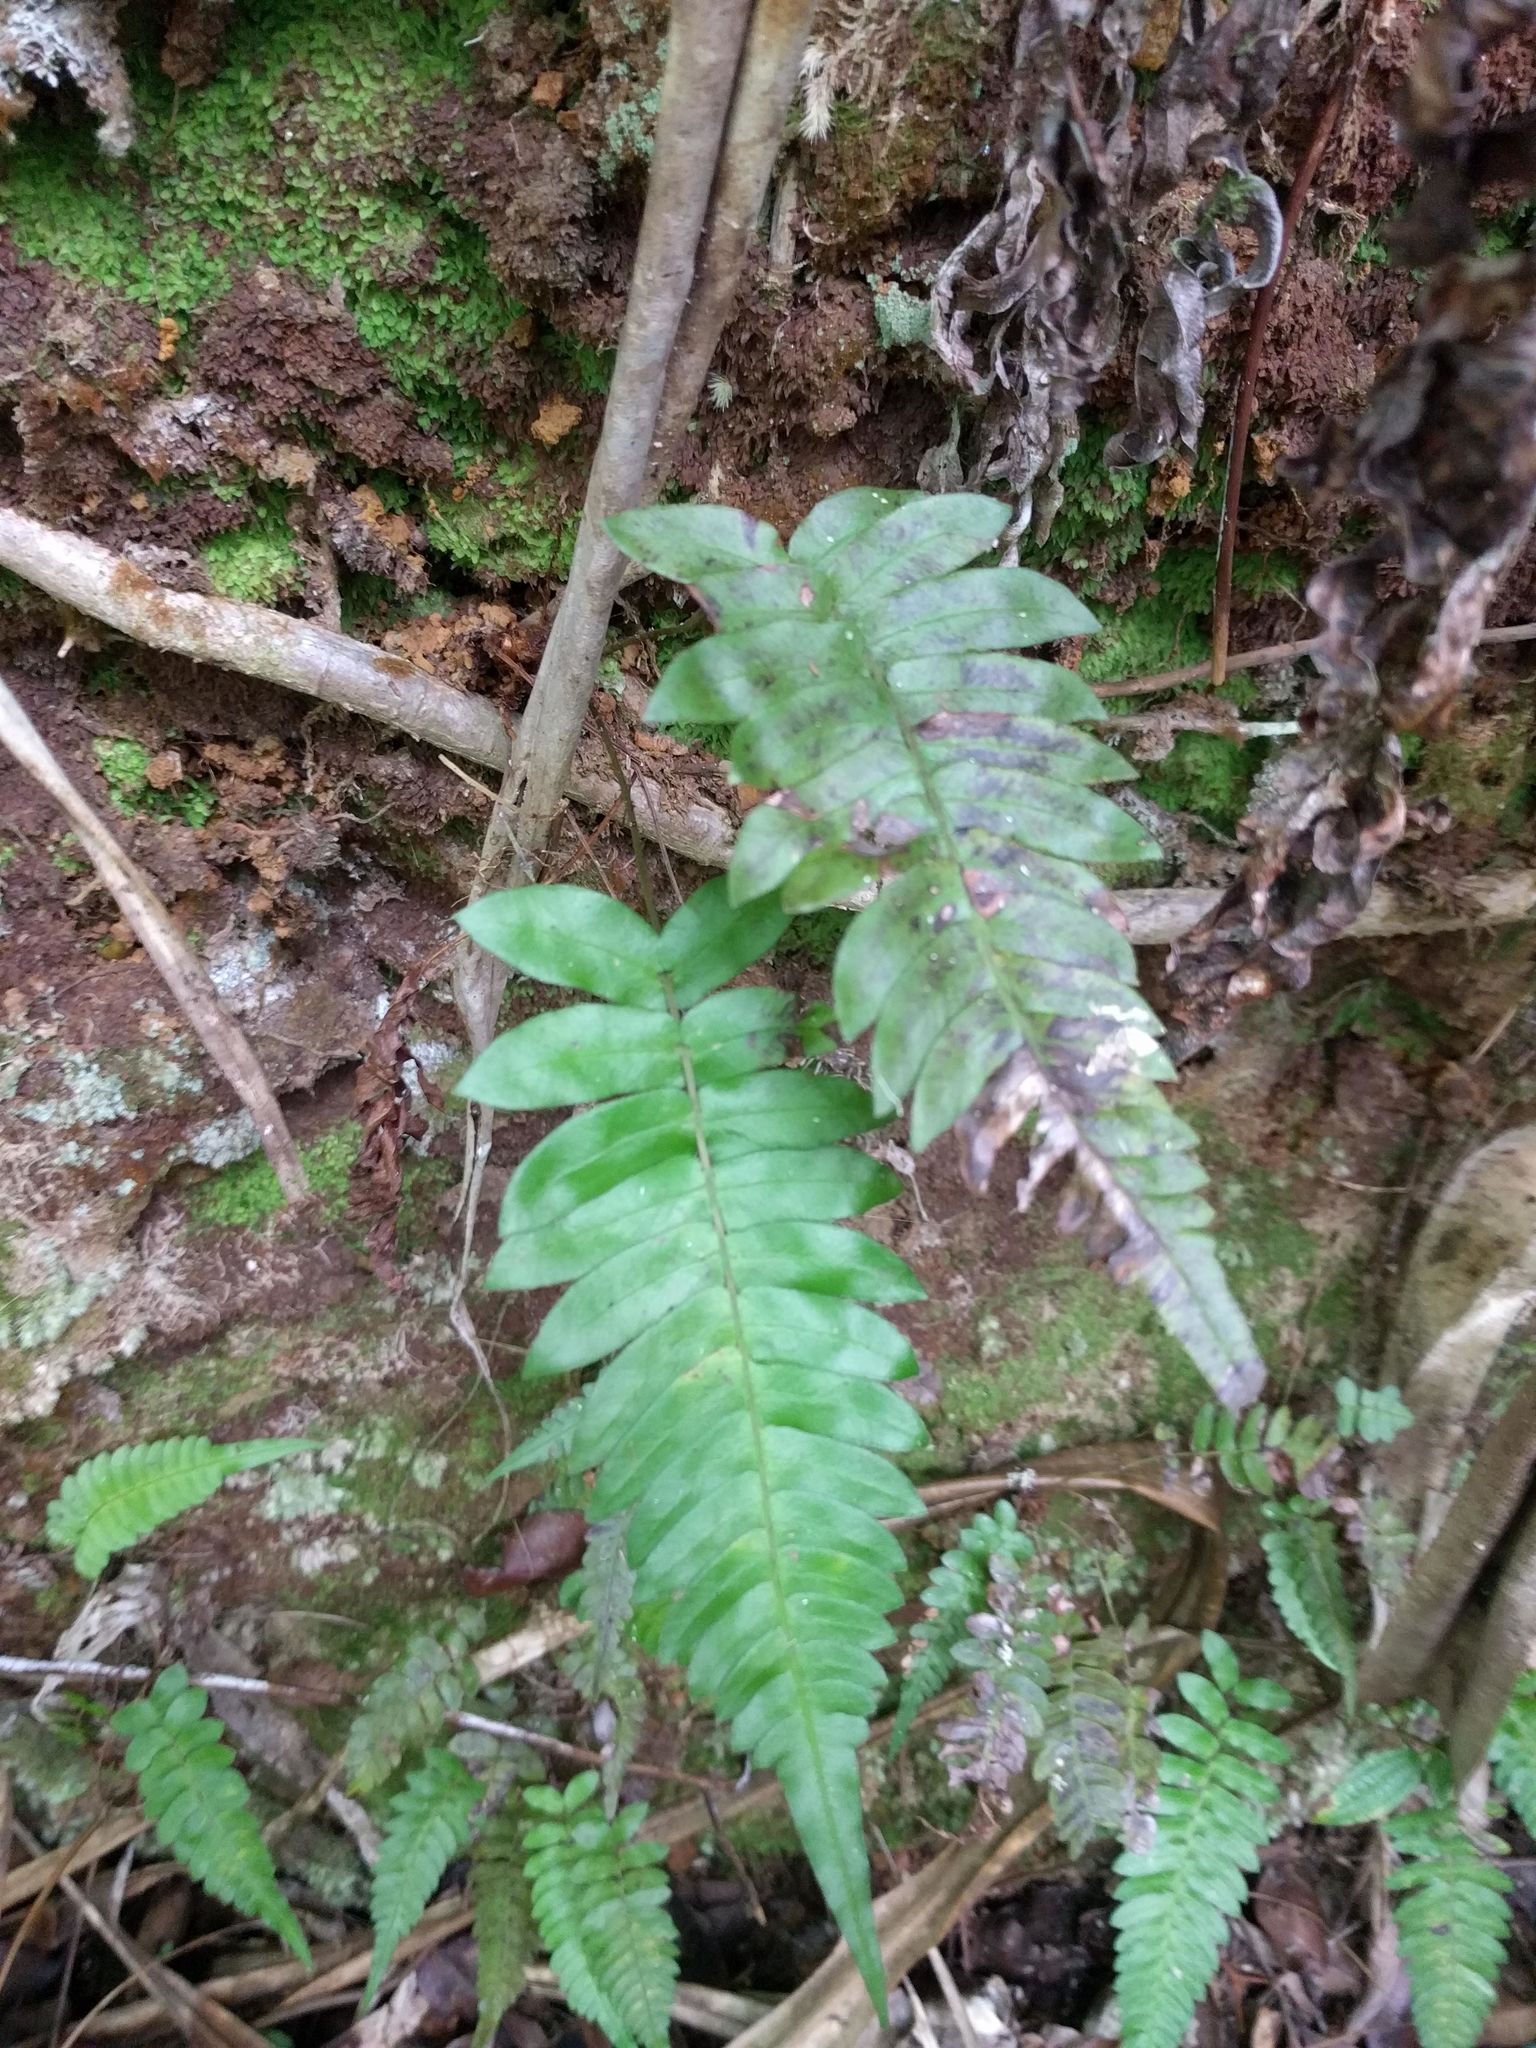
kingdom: Plantae
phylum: Tracheophyta
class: Polypodiopsida
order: Polypodiales
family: Blechnaceae
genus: Blechnum
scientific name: Blechnum appendiculatum
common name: Palm fern
